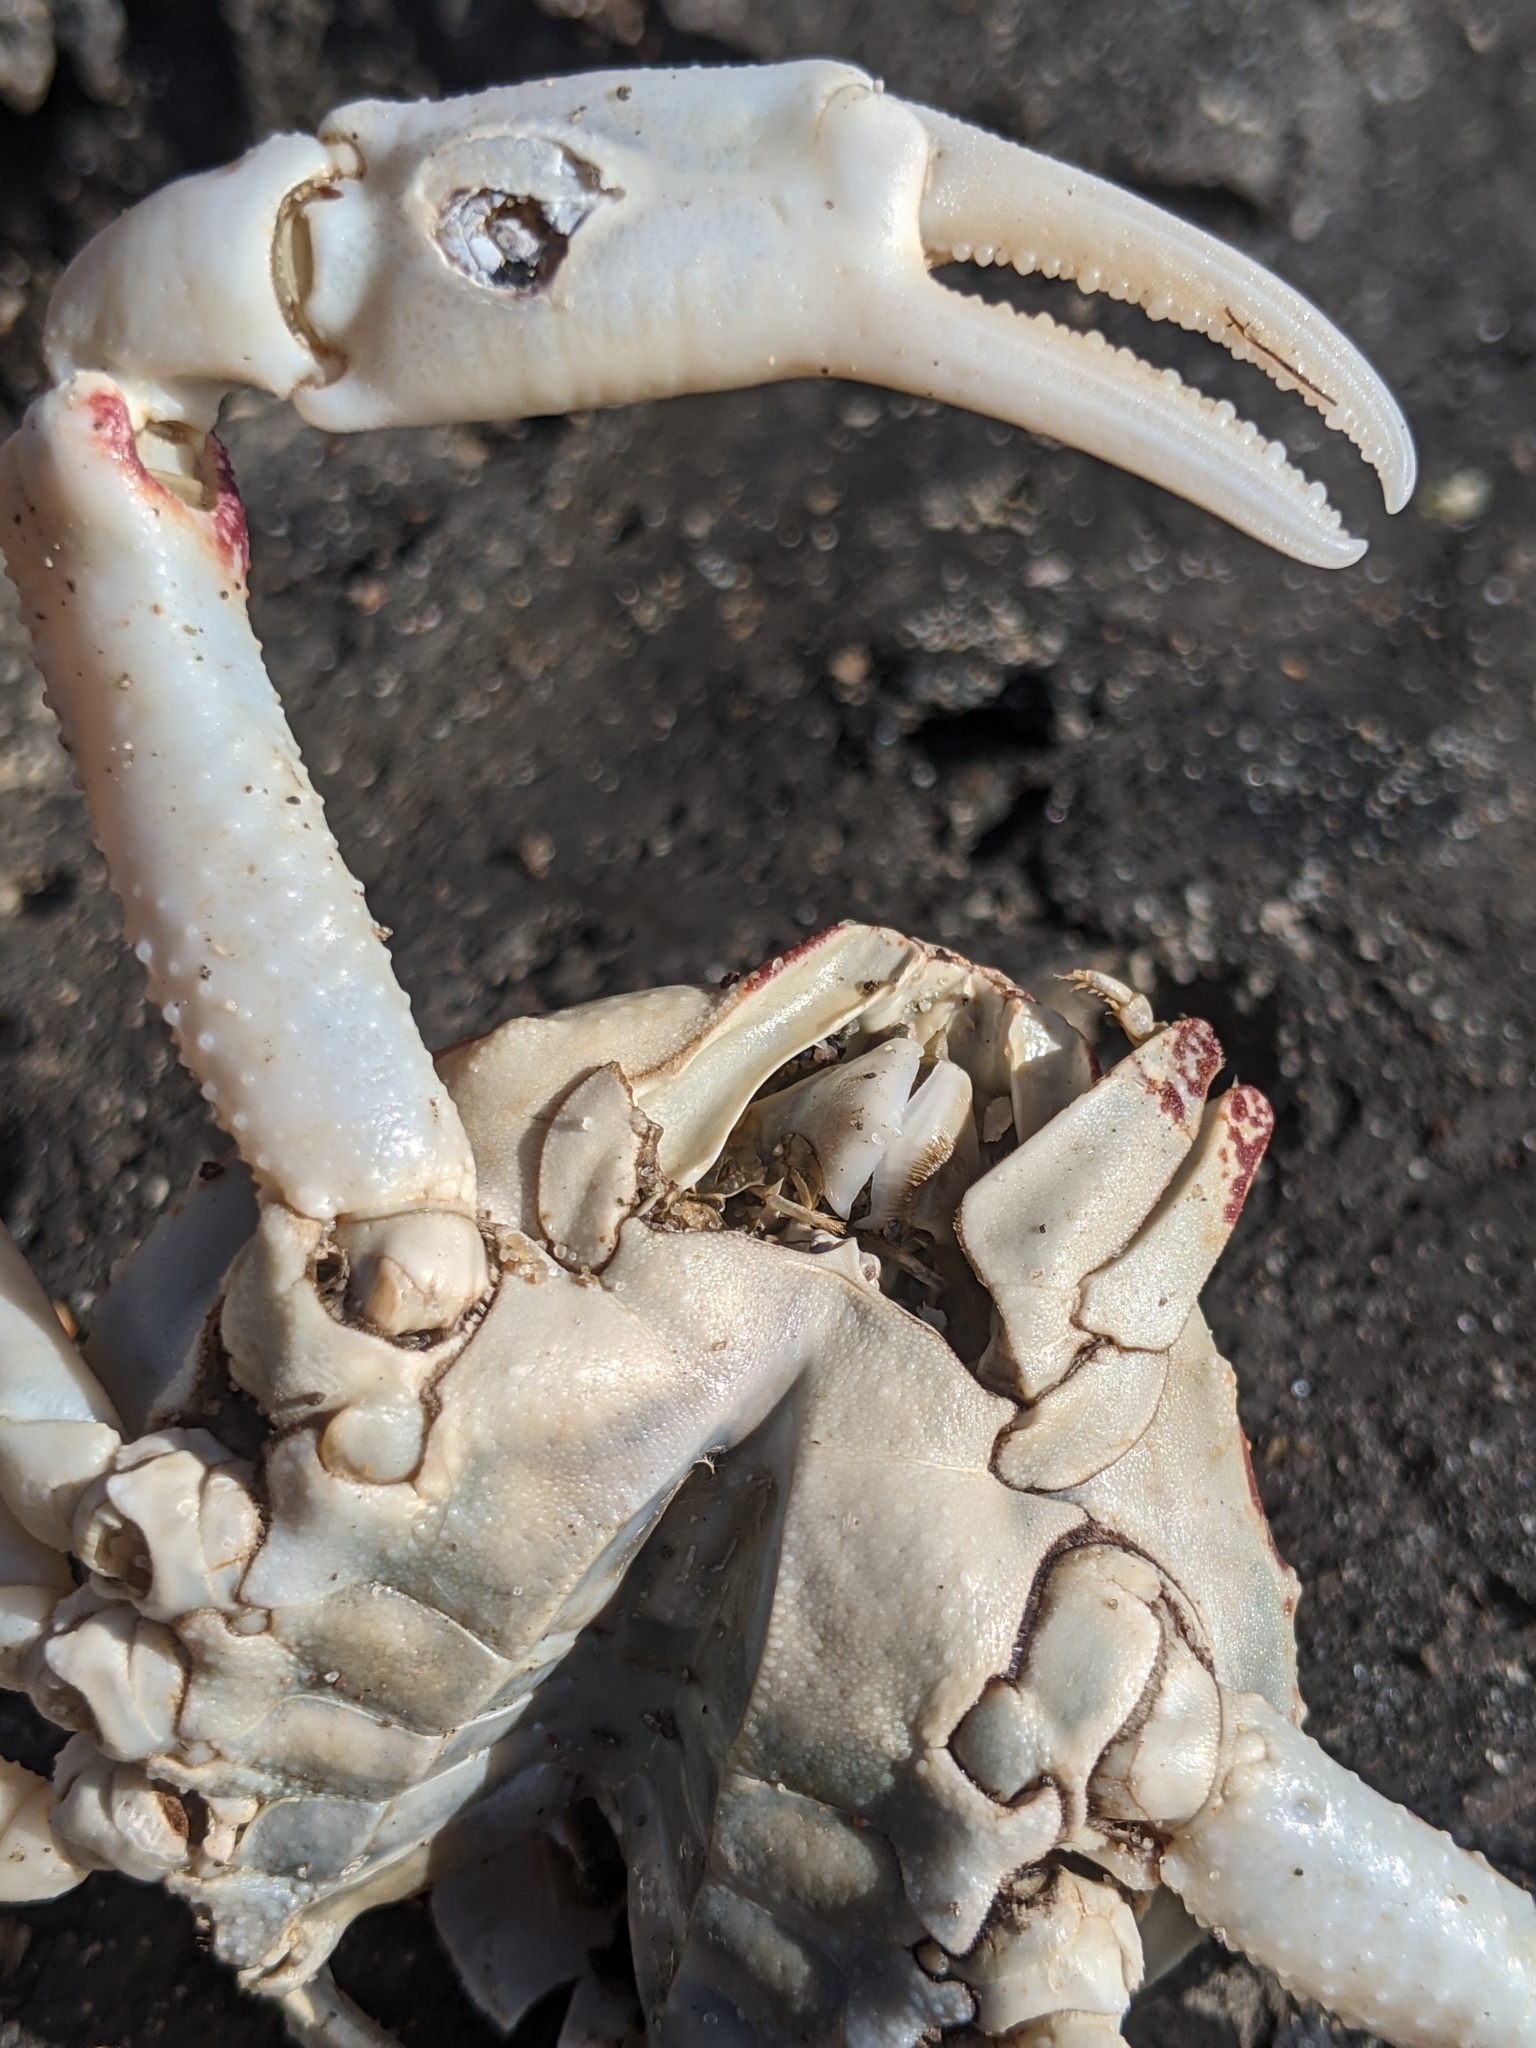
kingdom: Animalia
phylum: Arthropoda
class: Malacostraca
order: Decapoda
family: Leucosiidae
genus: Randallia
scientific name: Randallia ornata
